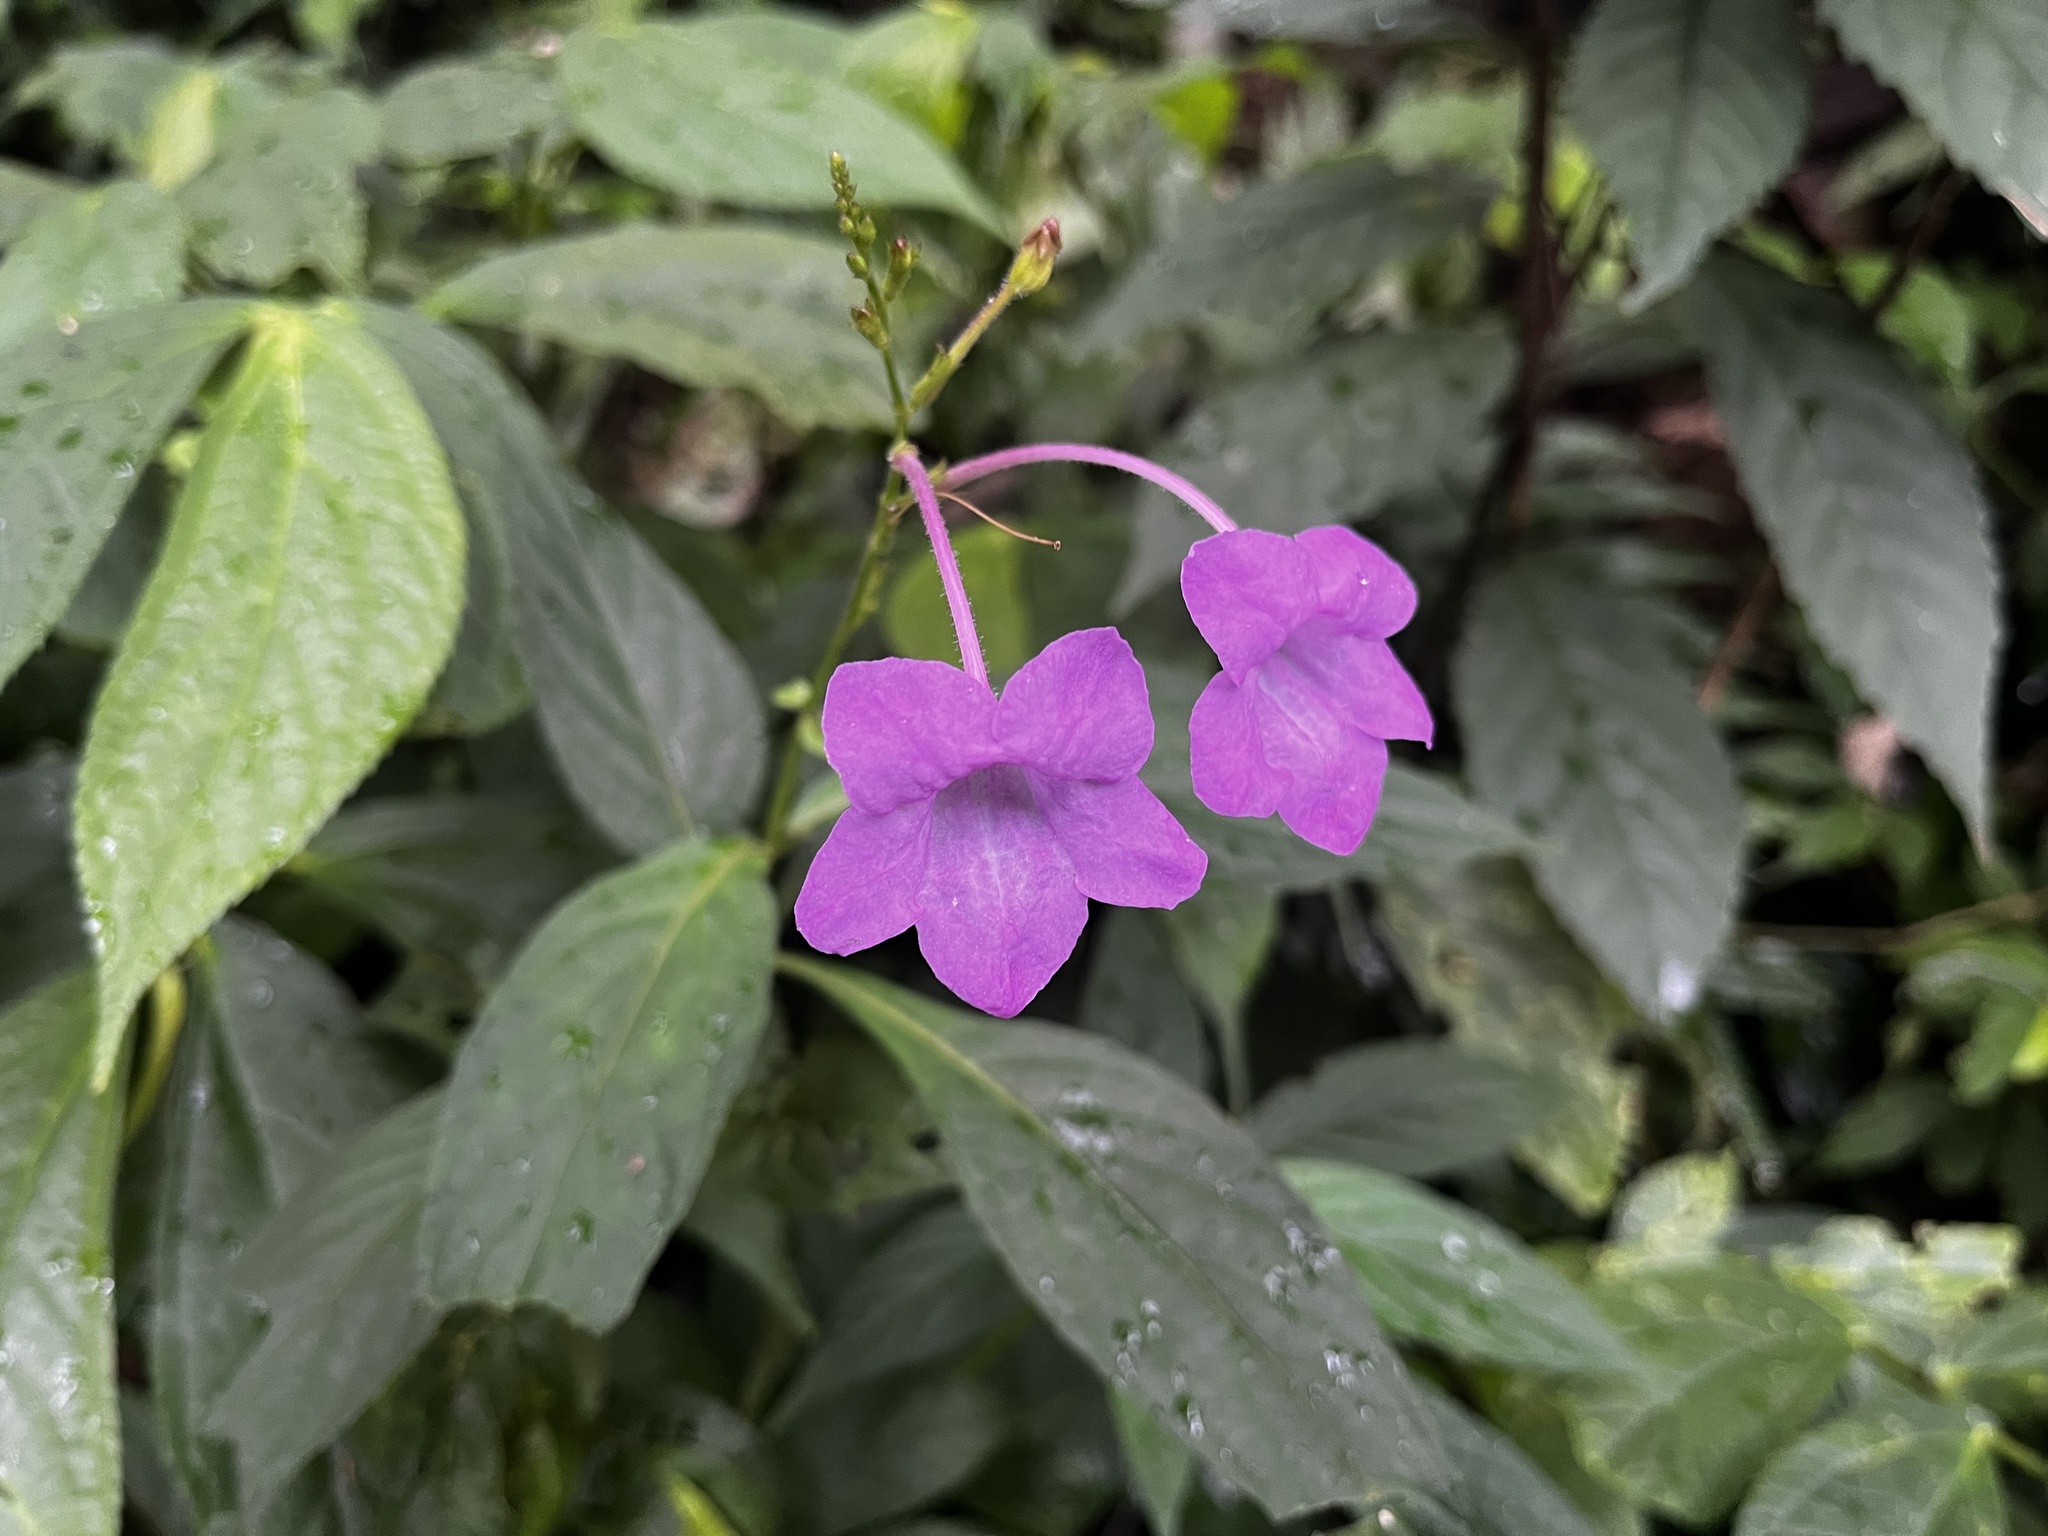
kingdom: Plantae
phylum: Tracheophyta
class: Magnoliopsida
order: Lamiales
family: Acanthaceae
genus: Mackaya
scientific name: Mackaya neesiana
